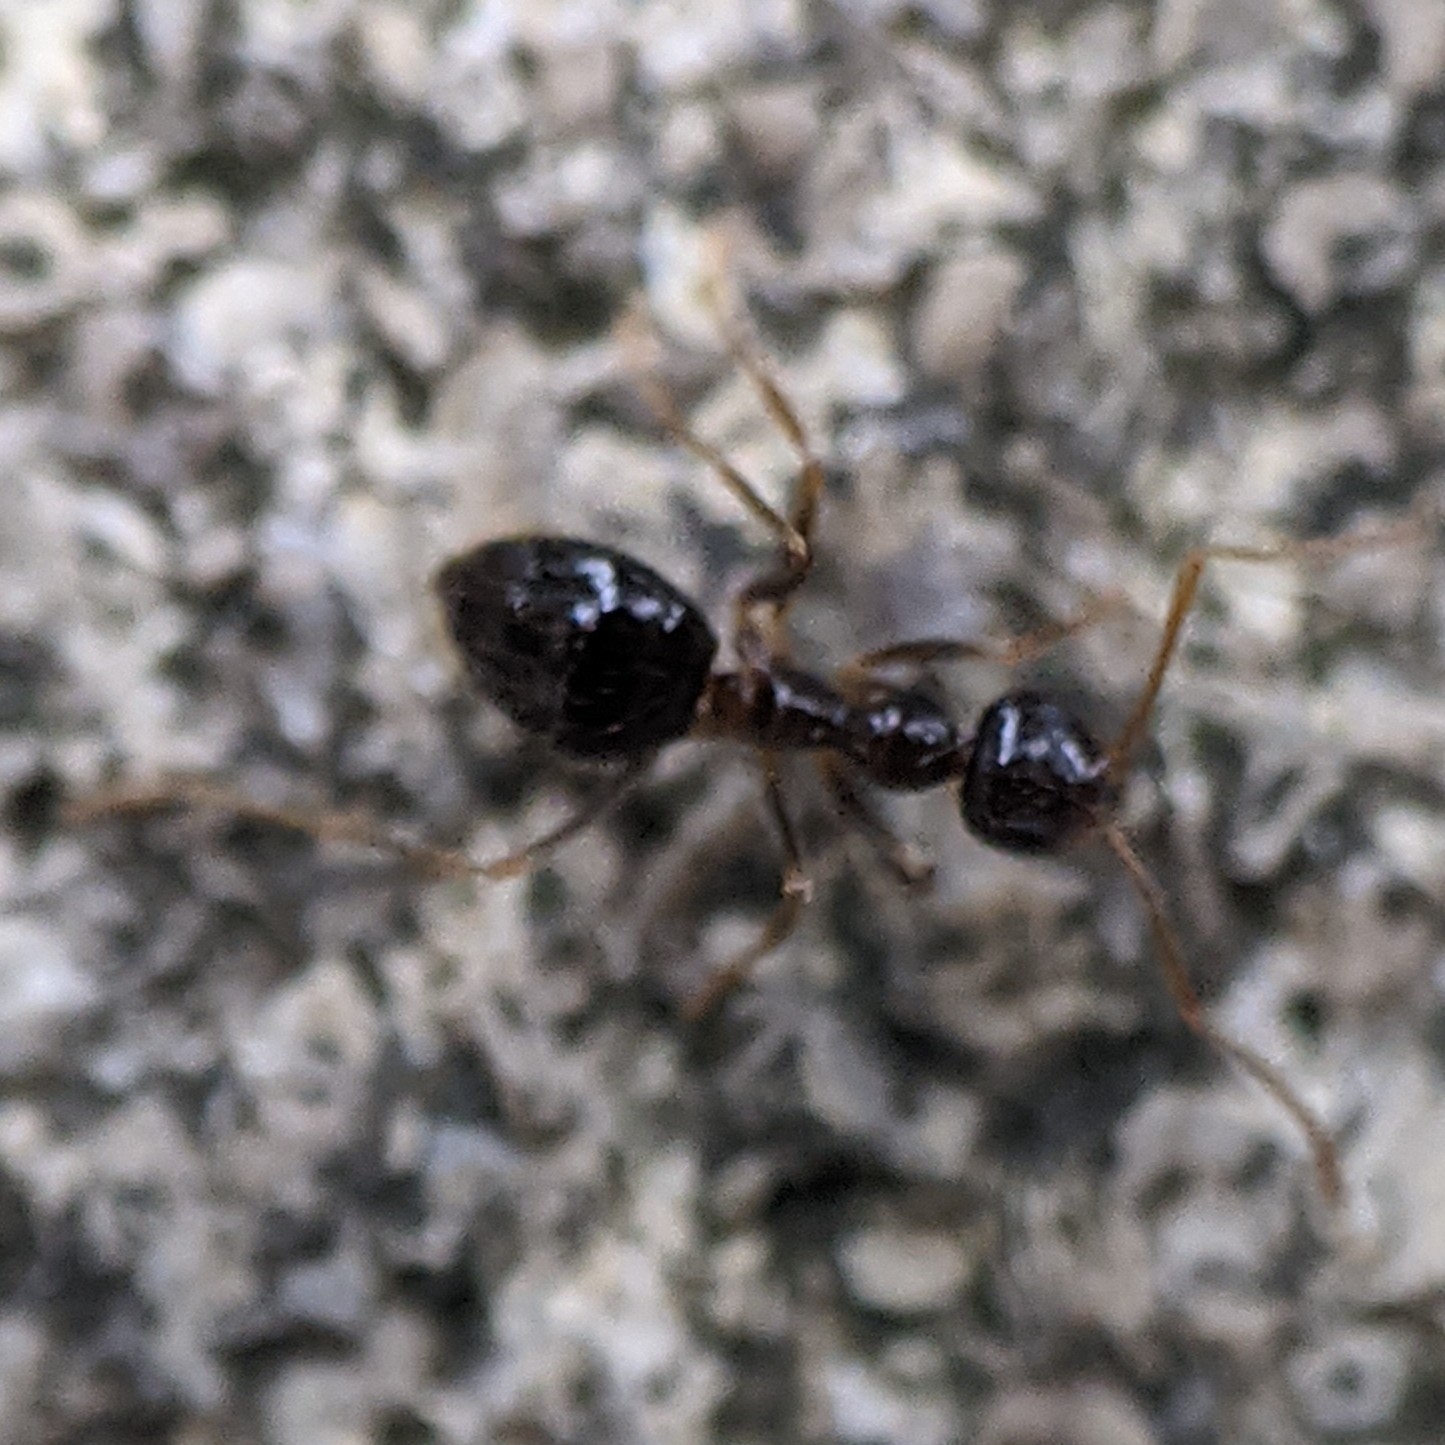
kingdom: Animalia
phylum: Arthropoda
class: Insecta
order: Hymenoptera
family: Formicidae
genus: Prenolepis
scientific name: Prenolepis imparis
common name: Small honey ant
